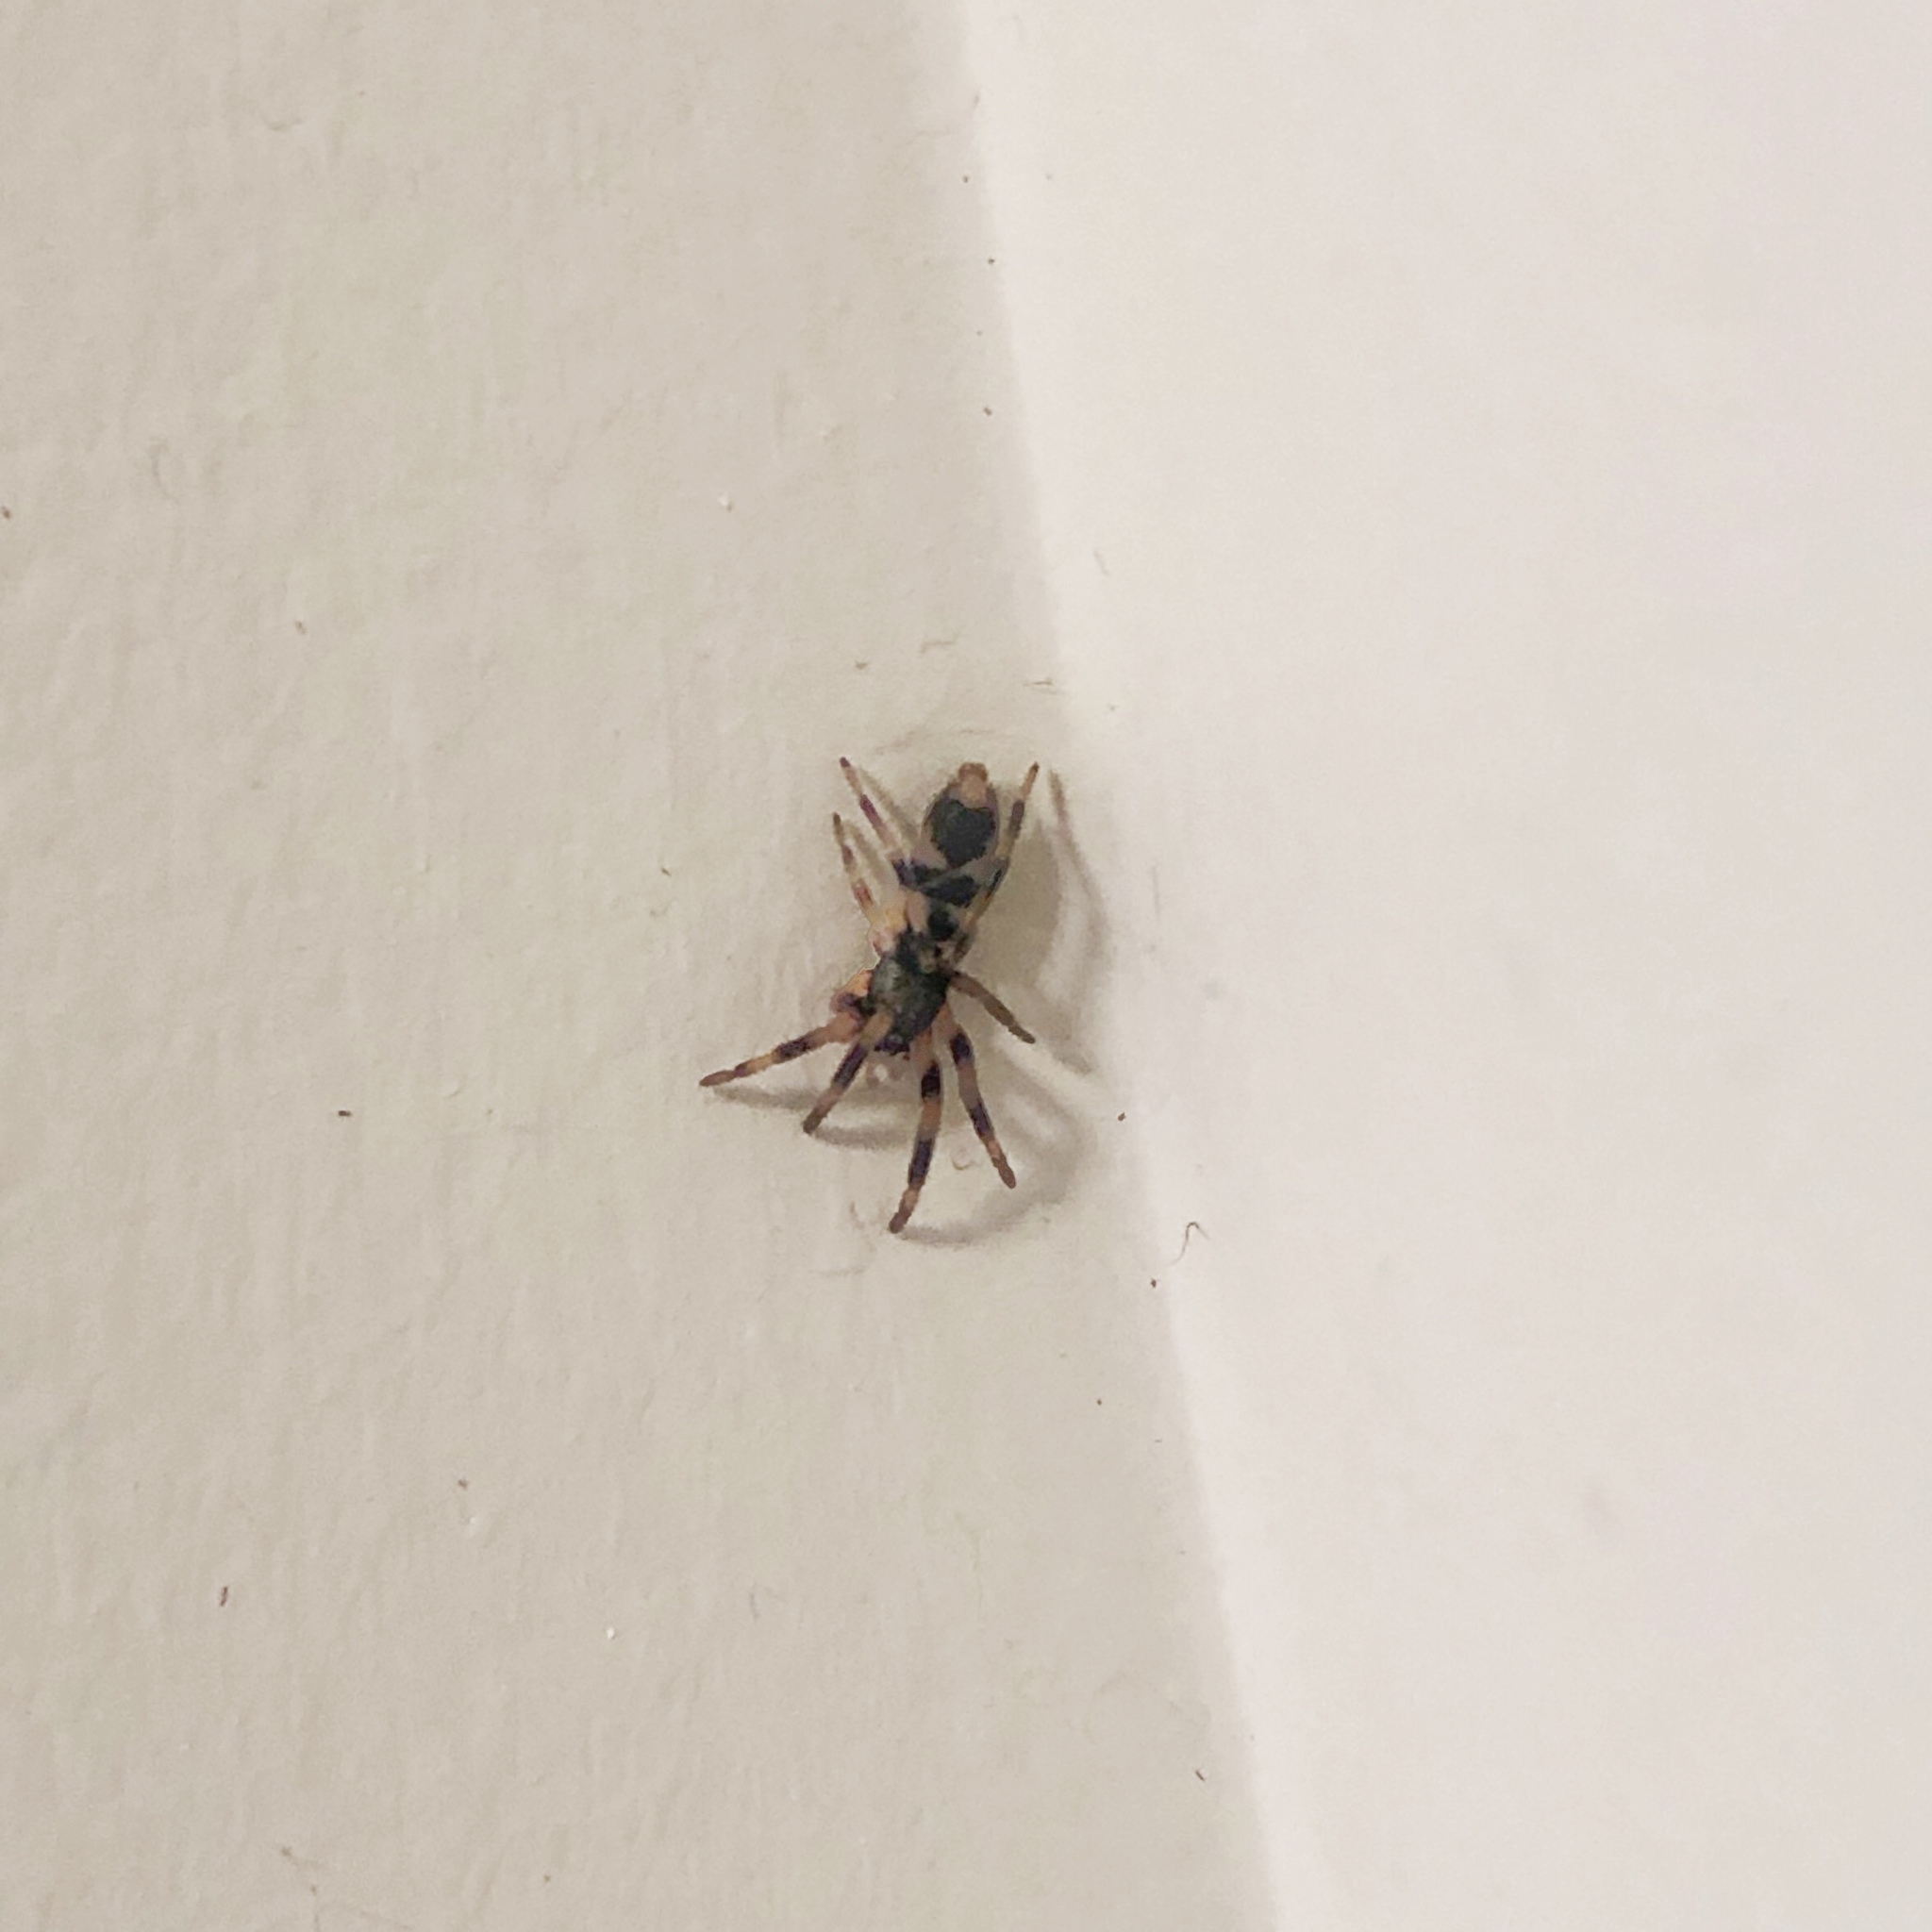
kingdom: Animalia
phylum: Arthropoda
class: Arachnida
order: Araneae
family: Lamponidae
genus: Lampona
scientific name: Lampona cylindrata
